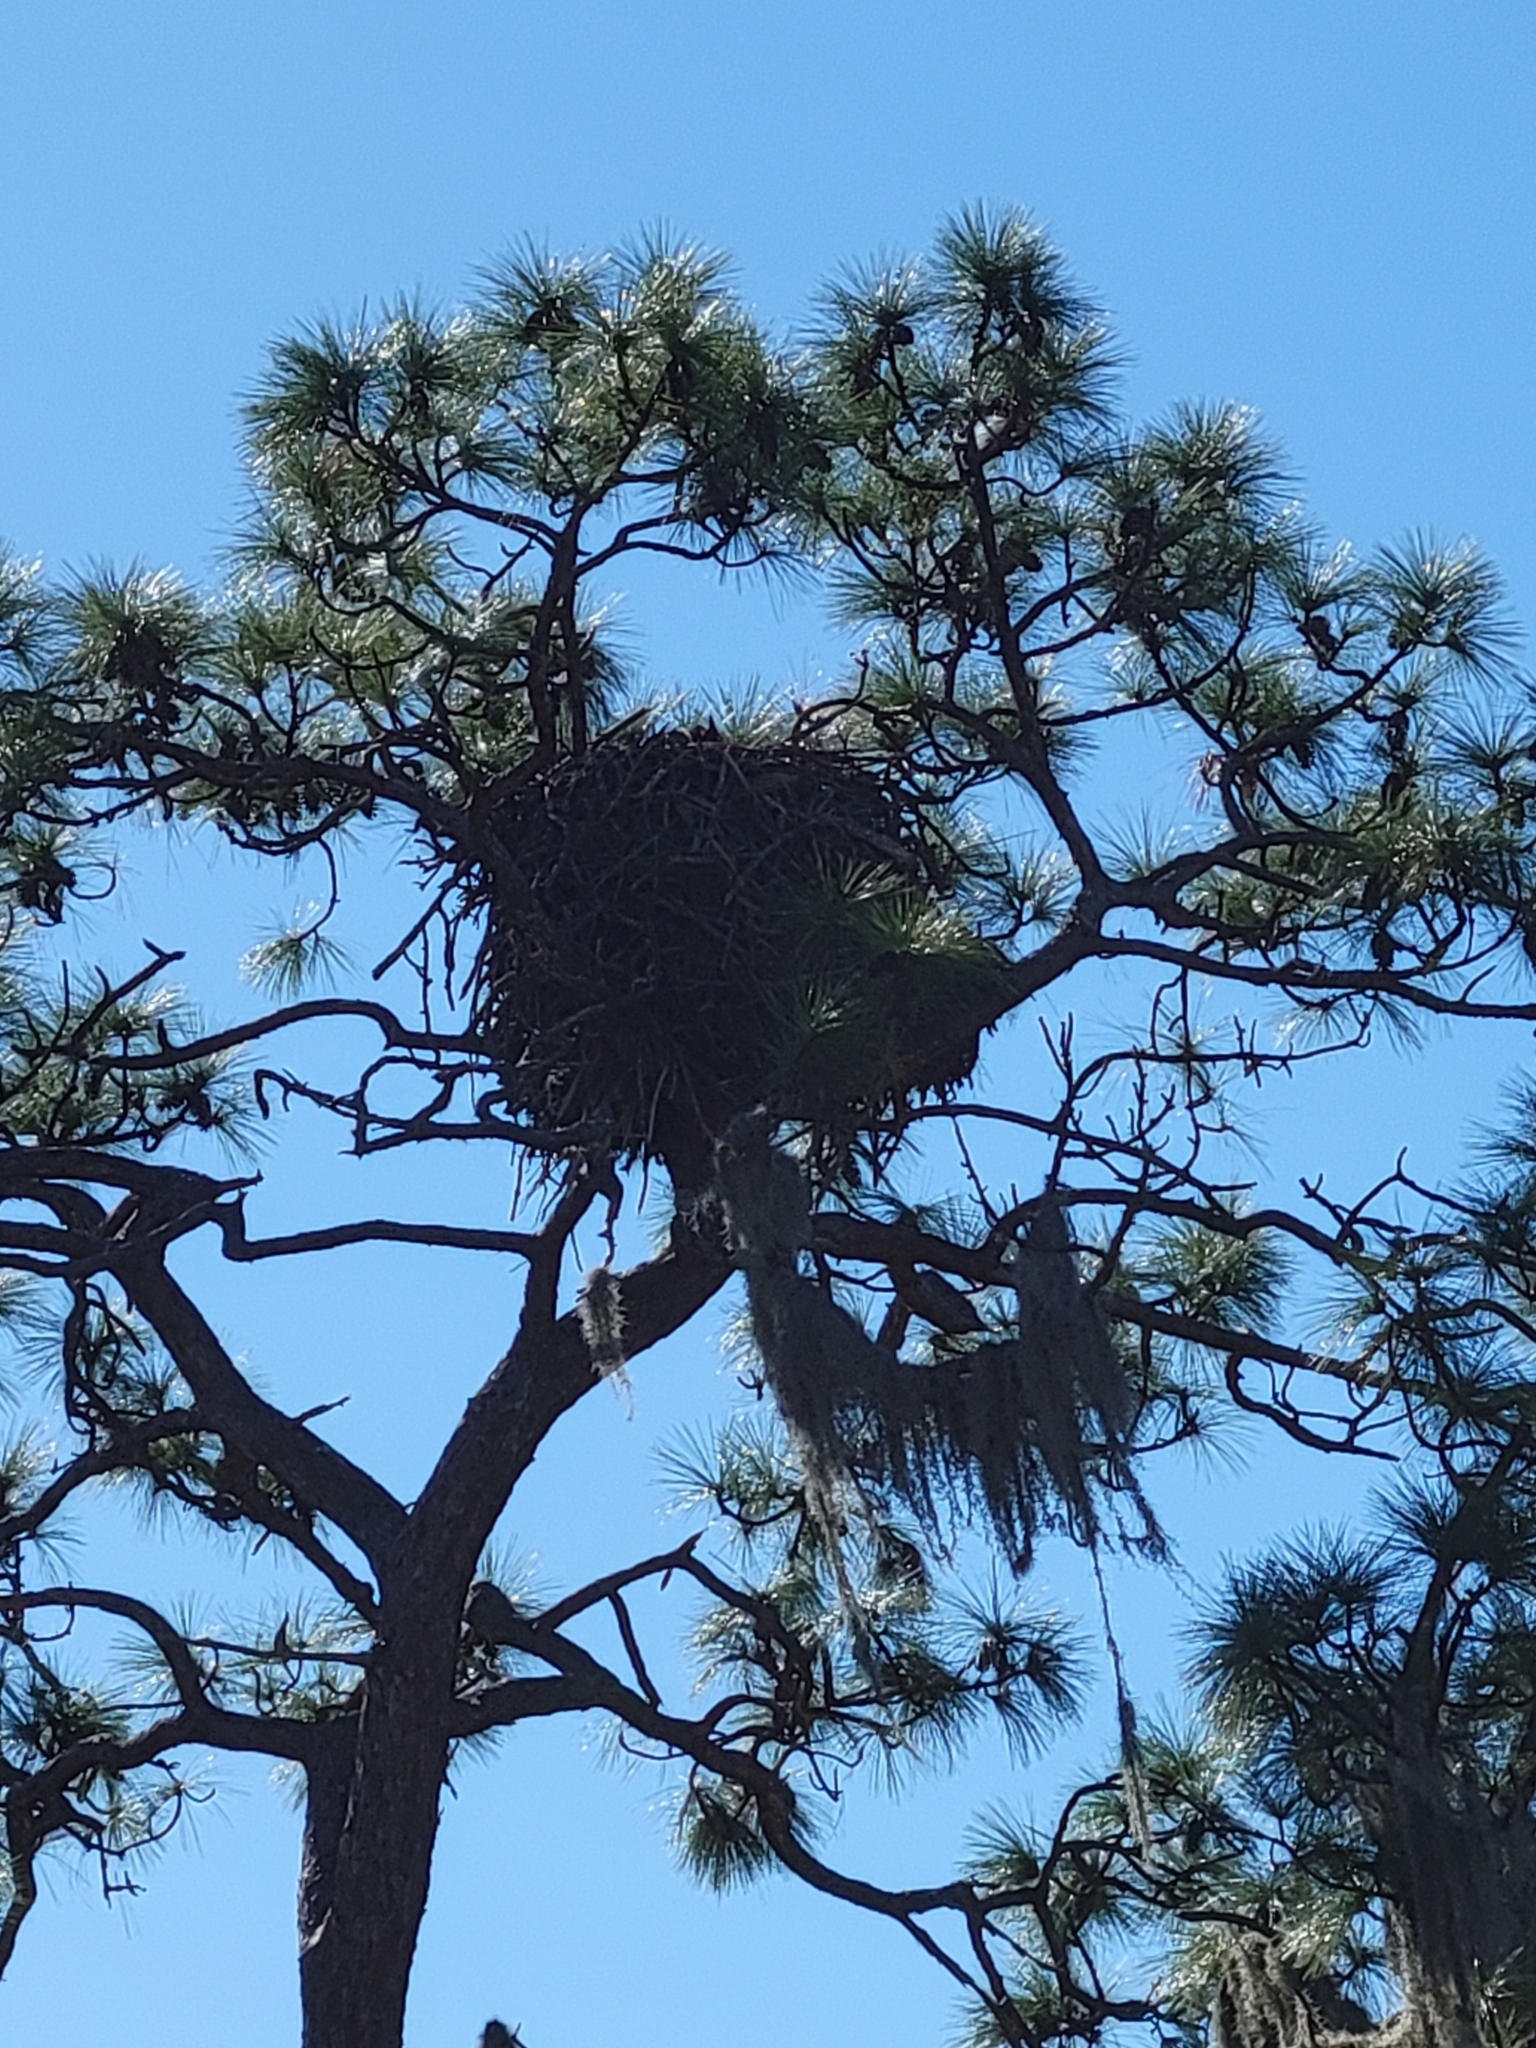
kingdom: Animalia
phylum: Chordata
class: Aves
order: Accipitriformes
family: Accipitridae
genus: Haliaeetus
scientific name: Haliaeetus leucocephalus
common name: Bald eagle
